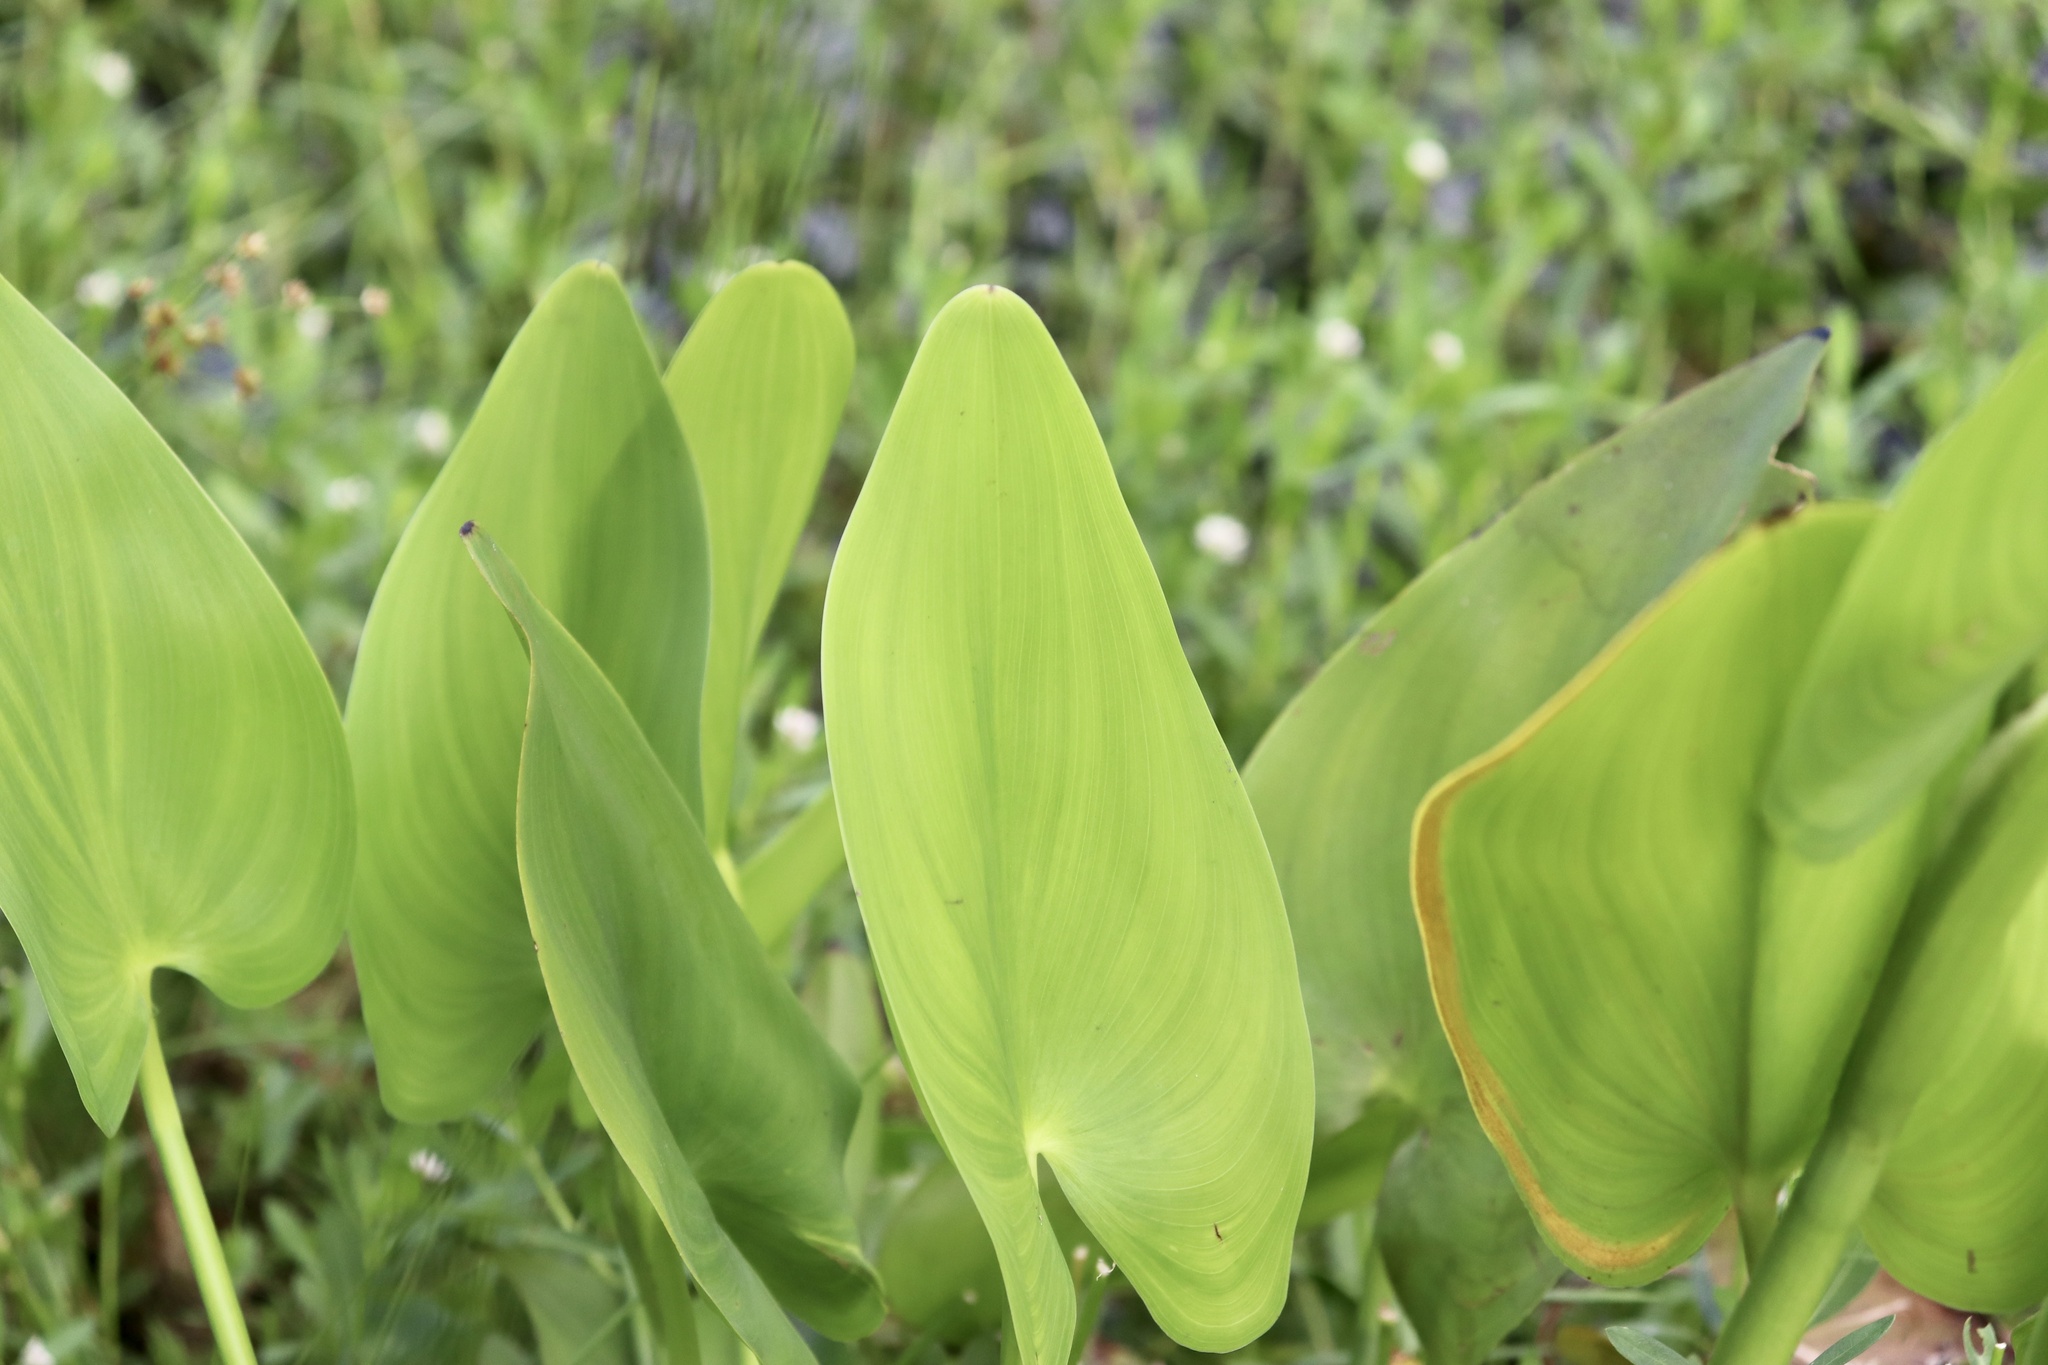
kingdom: Plantae
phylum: Tracheophyta
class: Liliopsida
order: Commelinales
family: Pontederiaceae
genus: Pontederia
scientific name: Pontederia cordata
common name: Pickerelweed
